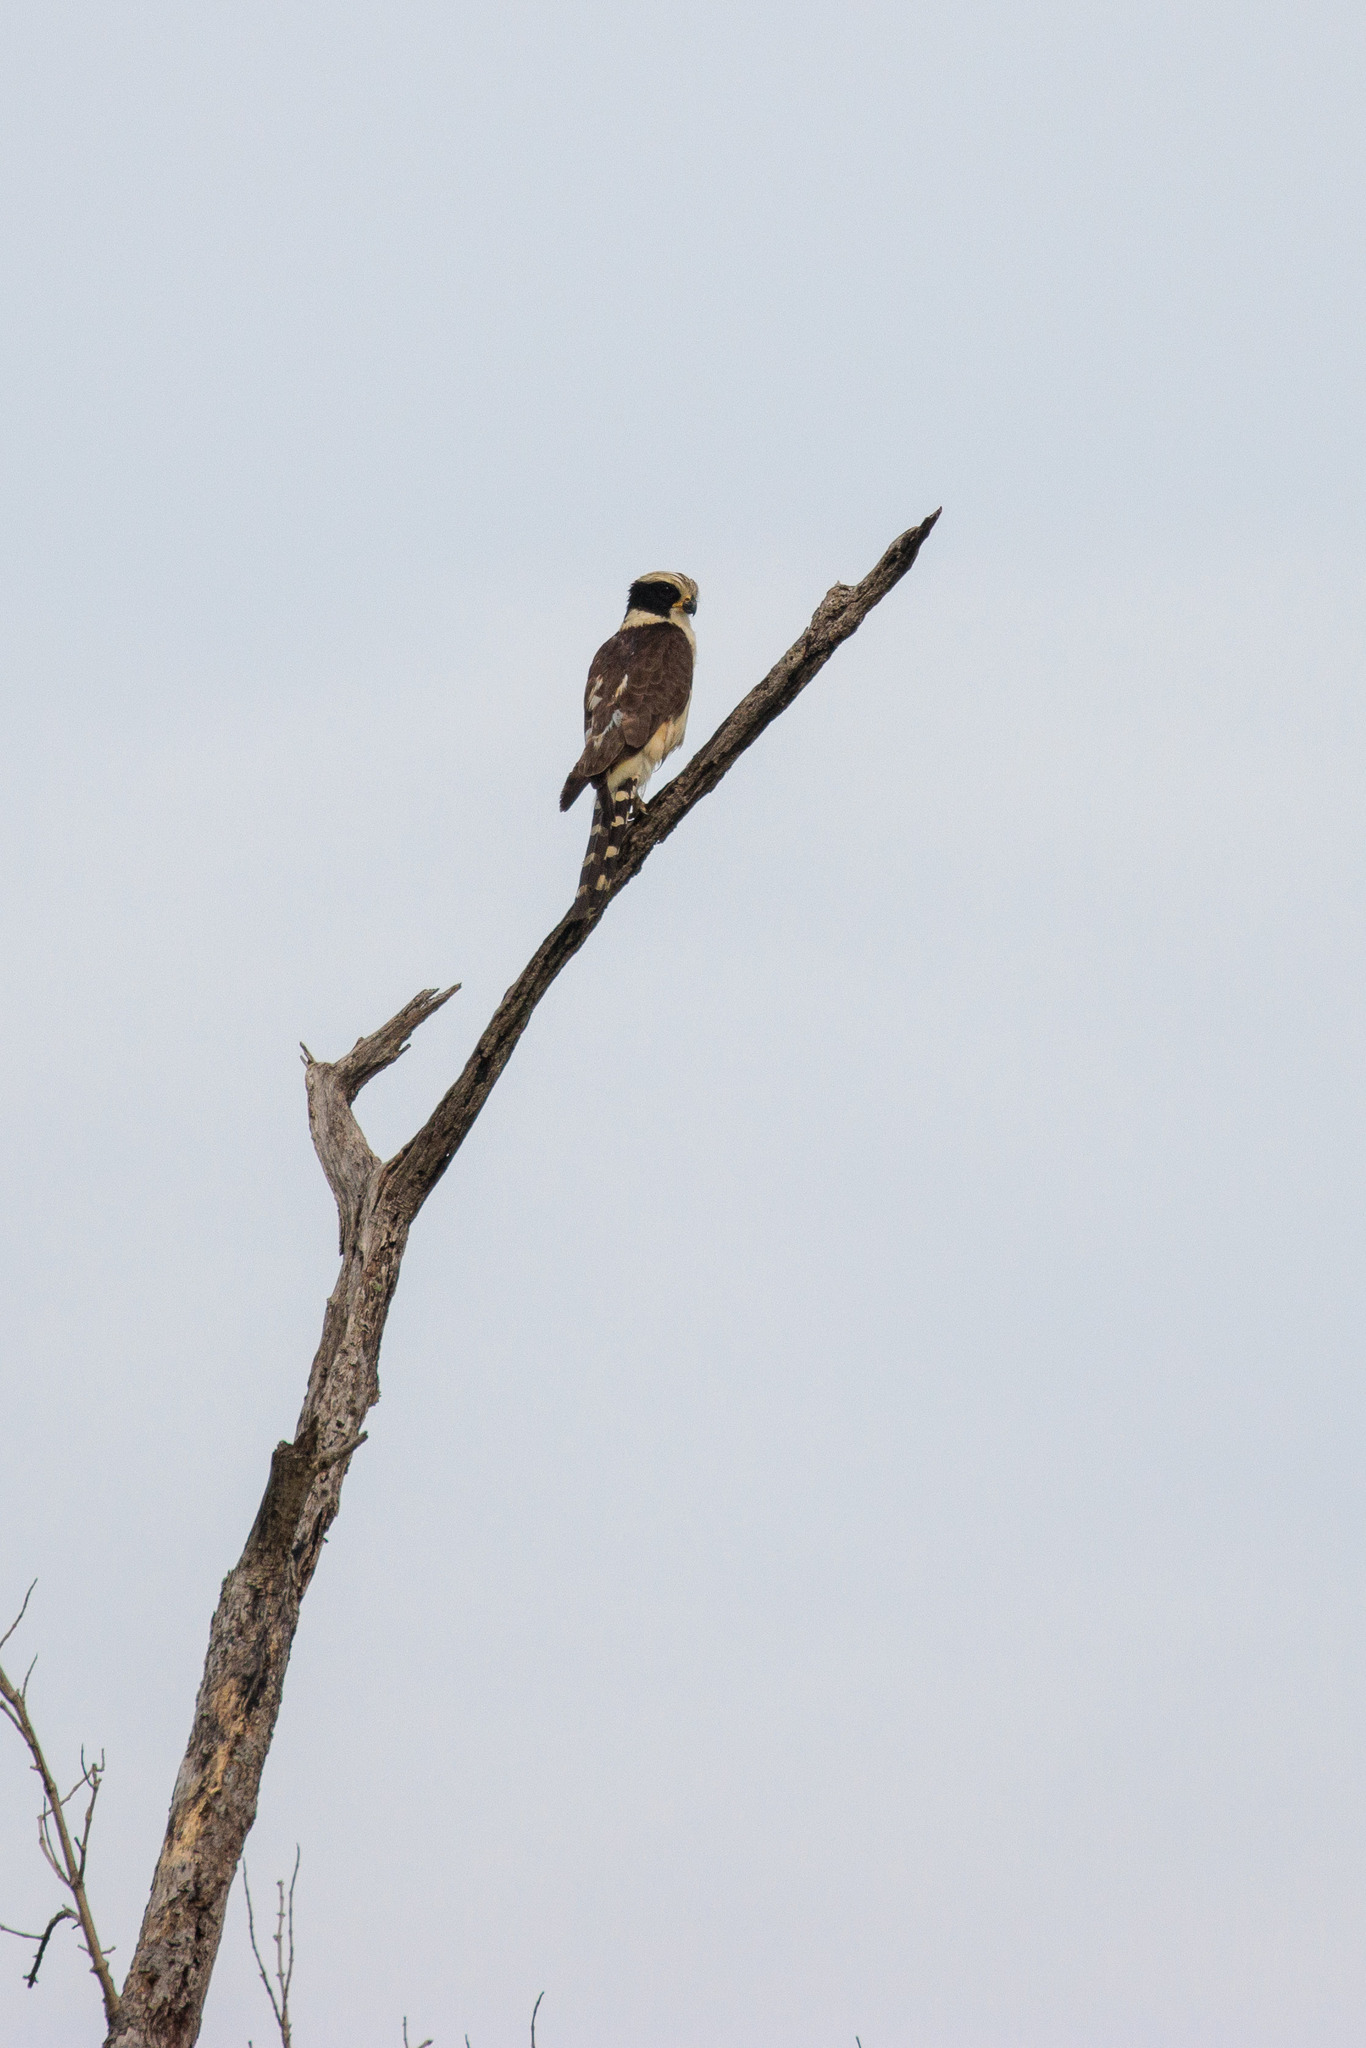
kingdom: Animalia
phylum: Chordata
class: Aves
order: Falconiformes
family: Falconidae
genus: Herpetotheres
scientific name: Herpetotheres cachinnans
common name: Laughing falcon
